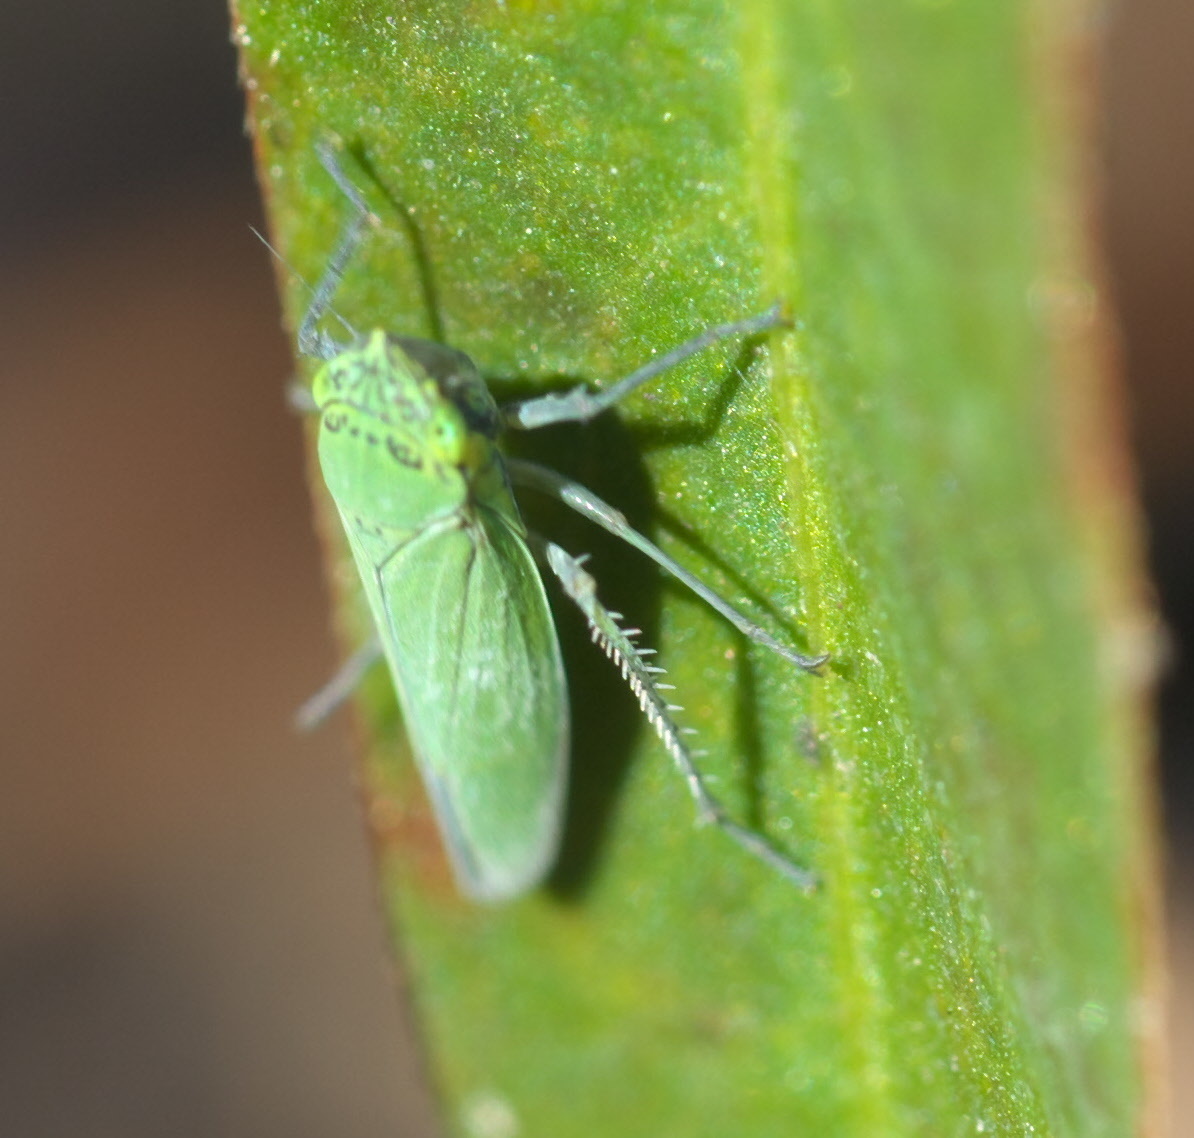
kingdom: Animalia
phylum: Arthropoda
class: Insecta
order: Hemiptera
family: Cicadellidae
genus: Draeculacephala
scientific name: Draeculacephala inscripta
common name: Leafhopper
